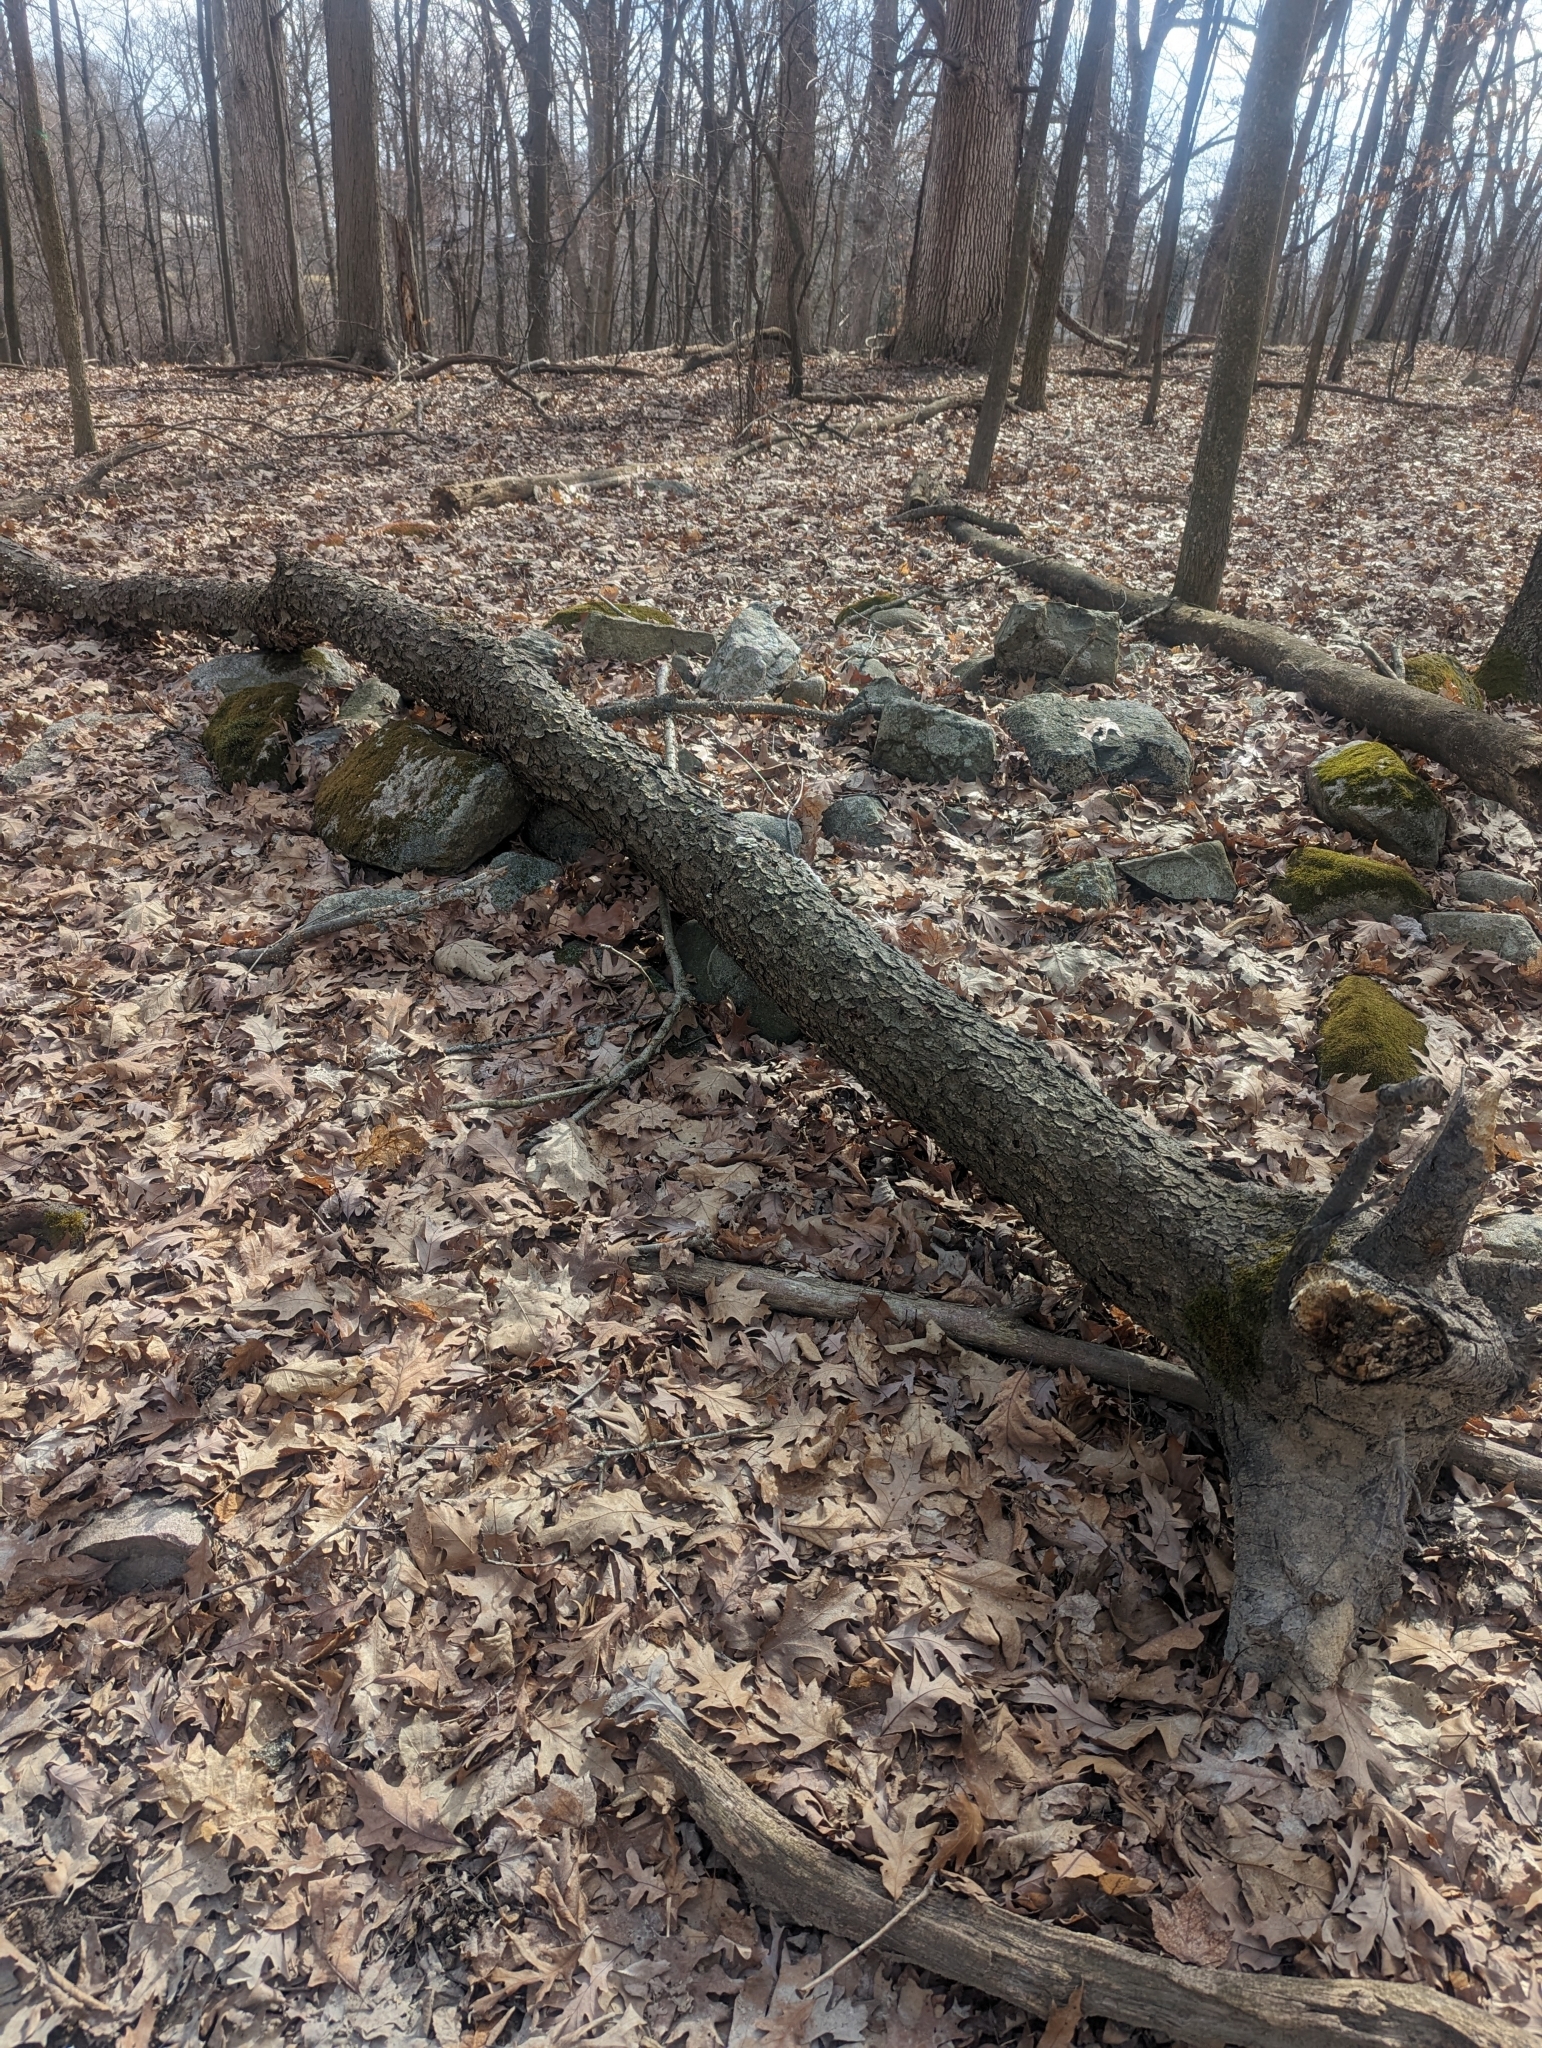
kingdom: Plantae
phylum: Tracheophyta
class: Magnoliopsida
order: Rosales
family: Rosaceae
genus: Prunus
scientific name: Prunus serotina
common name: Black cherry
